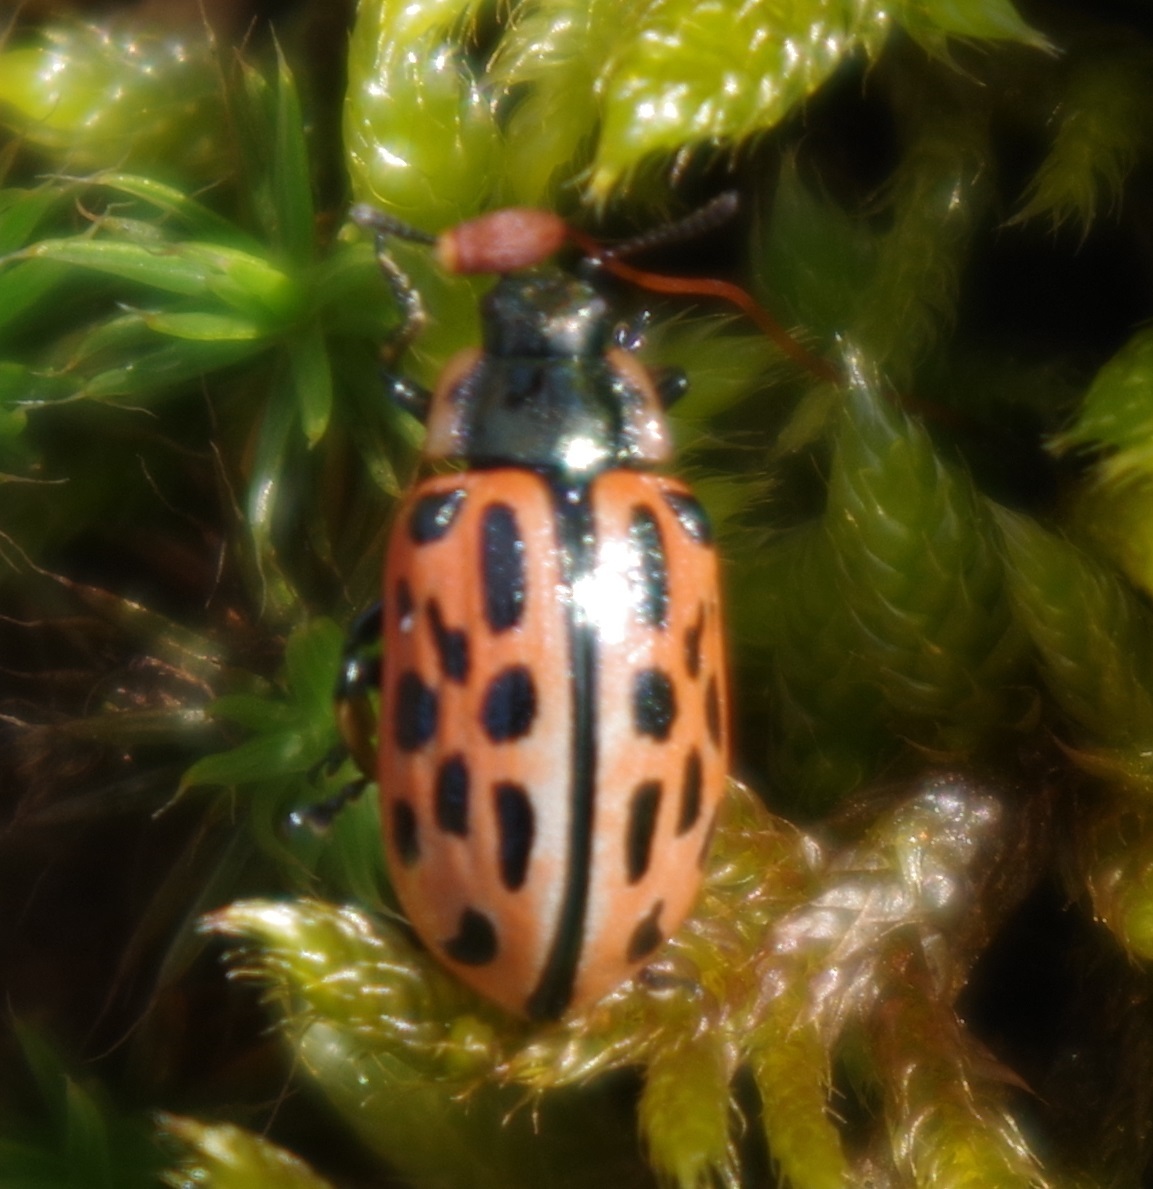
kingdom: Animalia
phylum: Arthropoda
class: Insecta
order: Coleoptera
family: Chrysomelidae
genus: Chrysomela
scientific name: Chrysomela vigintipunctata
